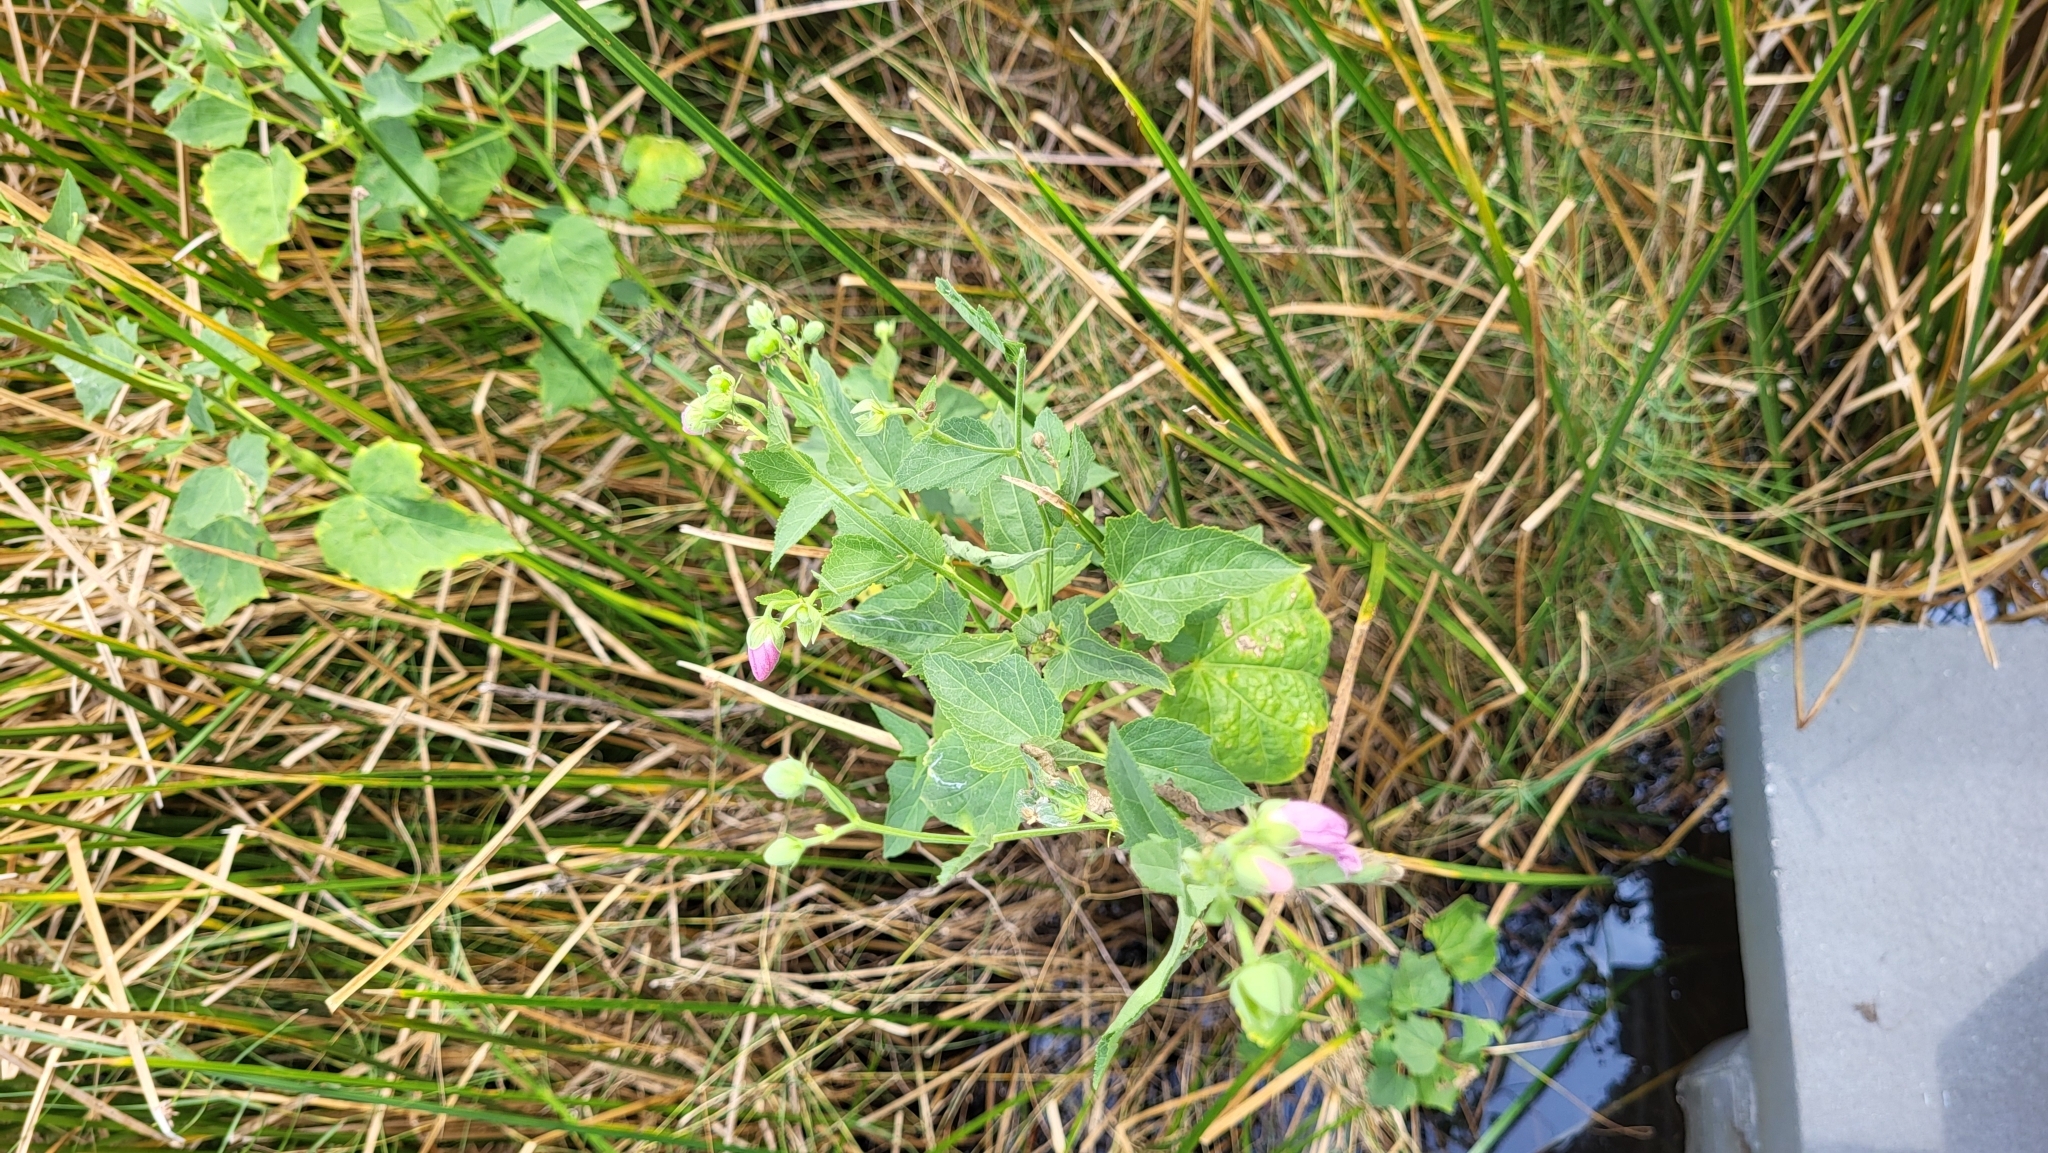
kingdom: Plantae
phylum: Tracheophyta
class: Magnoliopsida
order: Malvales
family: Malvaceae
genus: Kosteletzkya
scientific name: Kosteletzkya pentacarpos
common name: Virginia saltmarsh mallow
